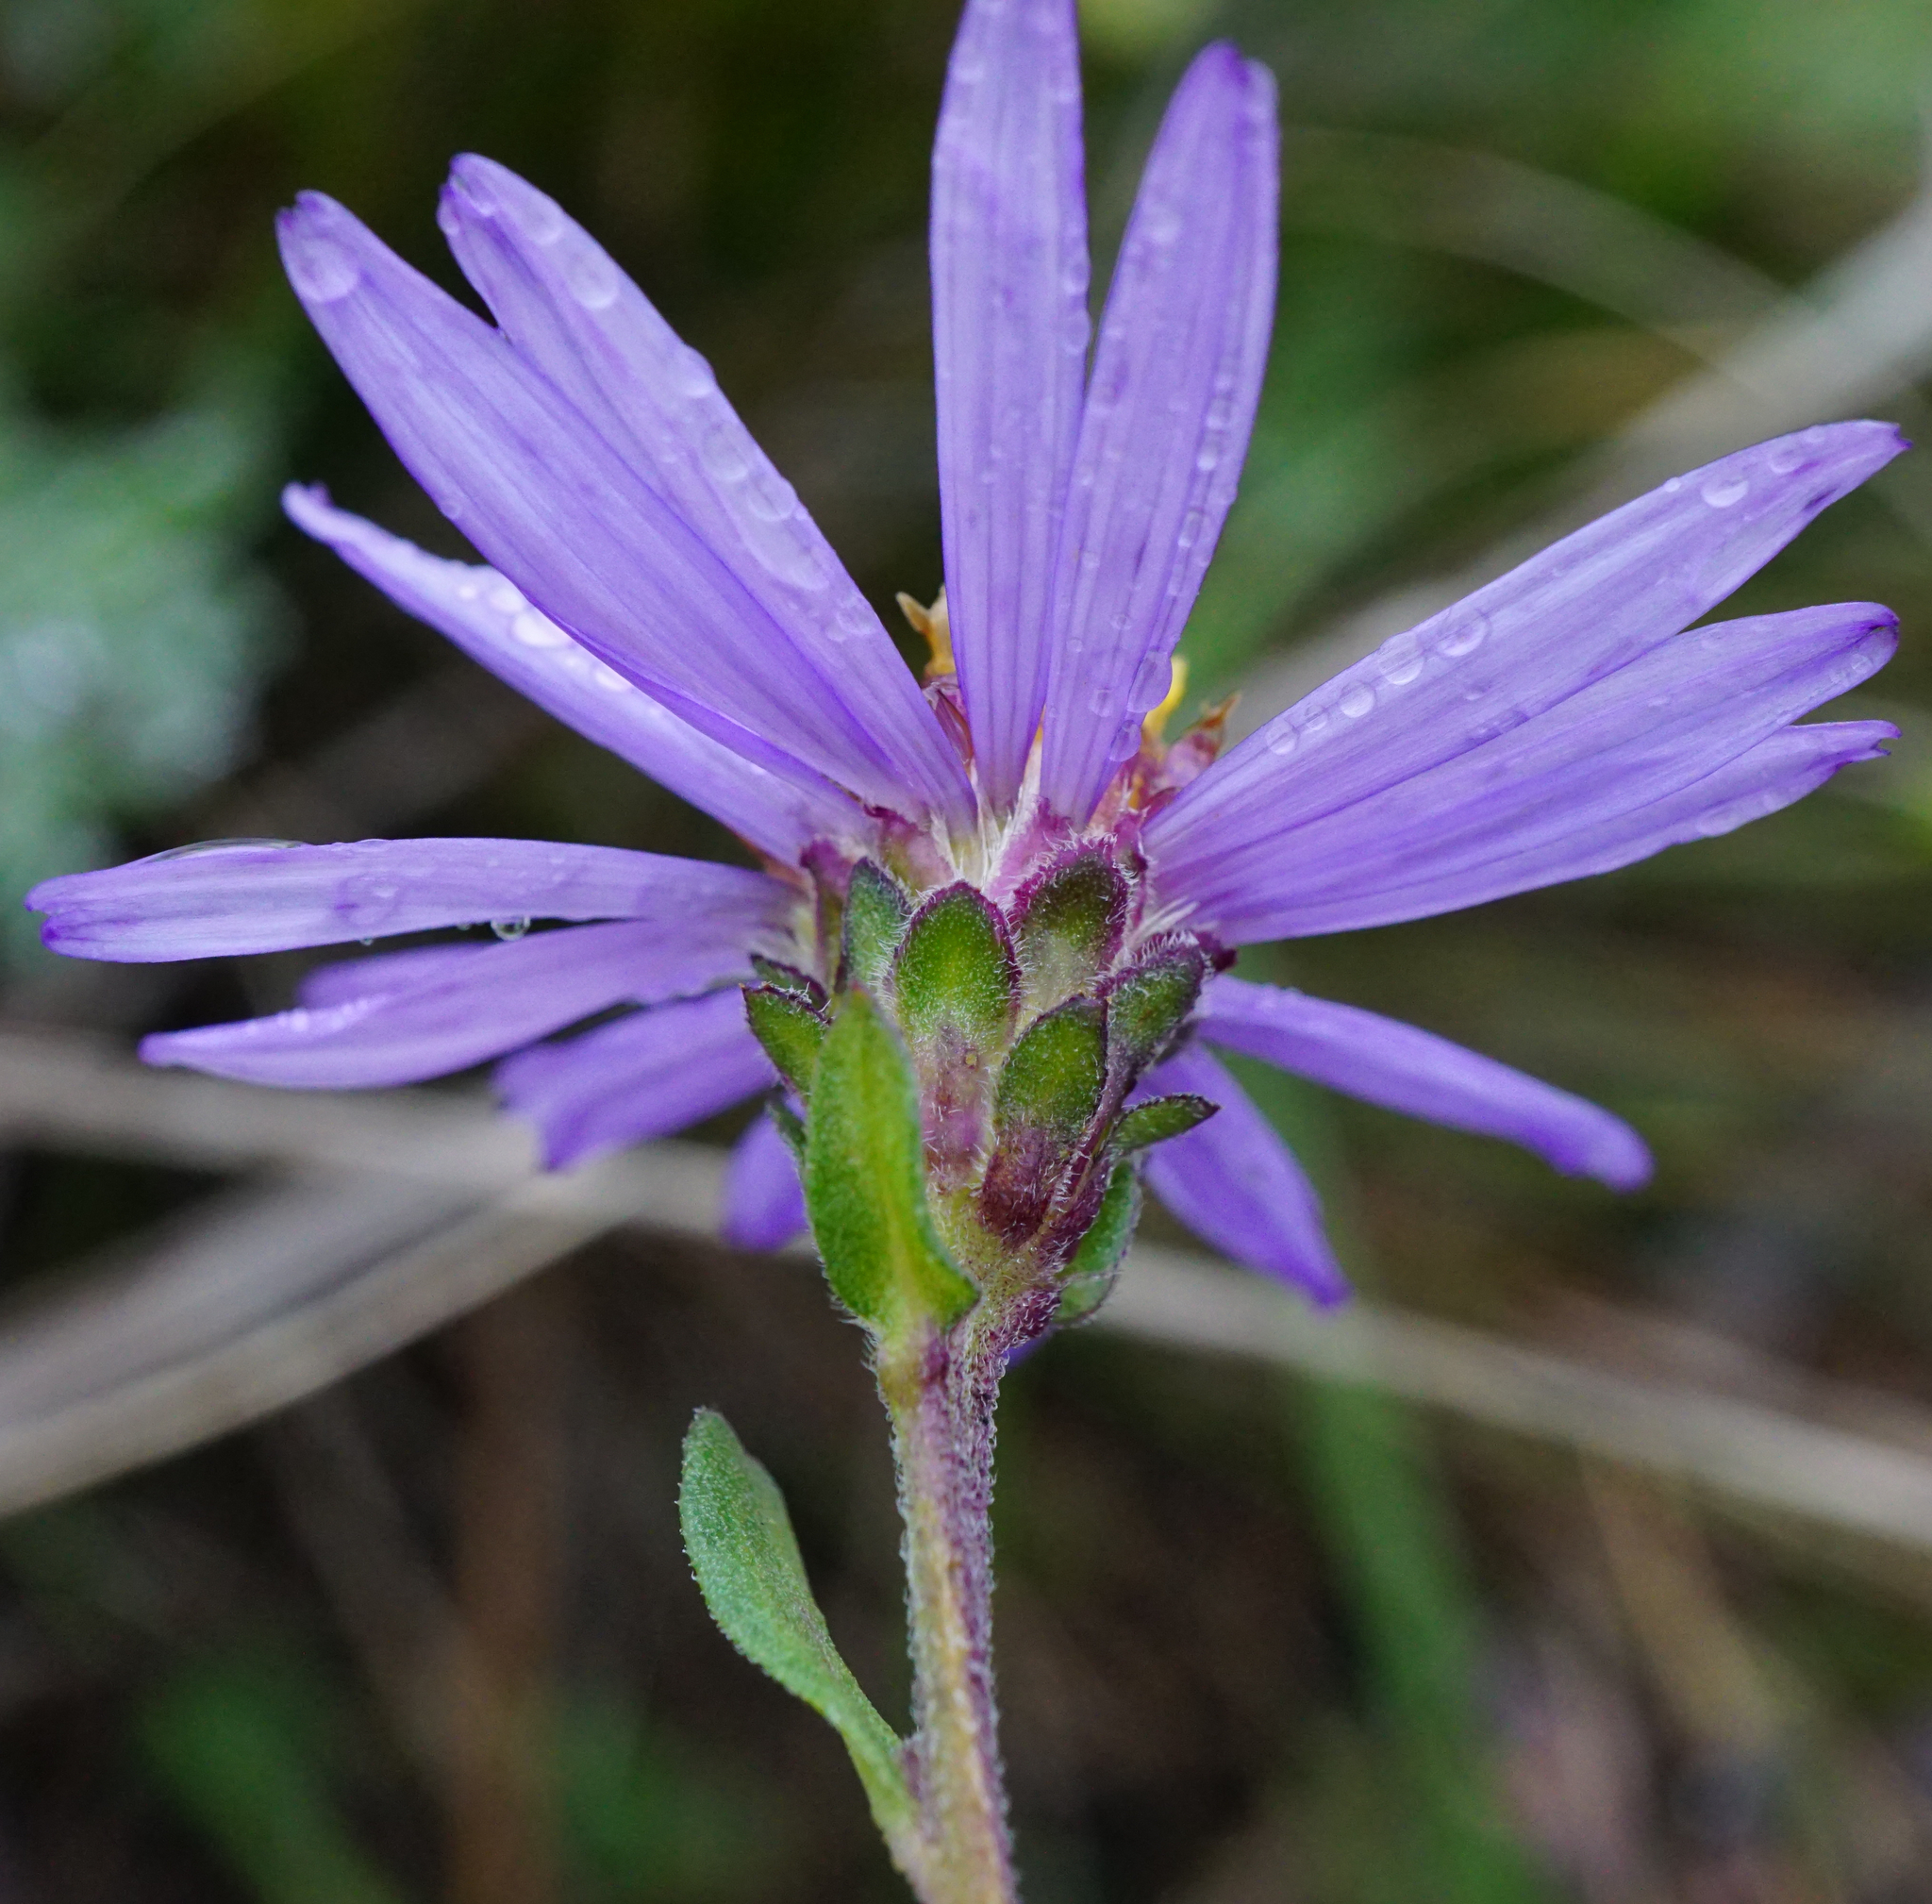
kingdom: Plantae
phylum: Tracheophyta
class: Magnoliopsida
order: Asterales
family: Asteraceae
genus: Aster
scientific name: Aster amellus
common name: European michaelmas daisy
